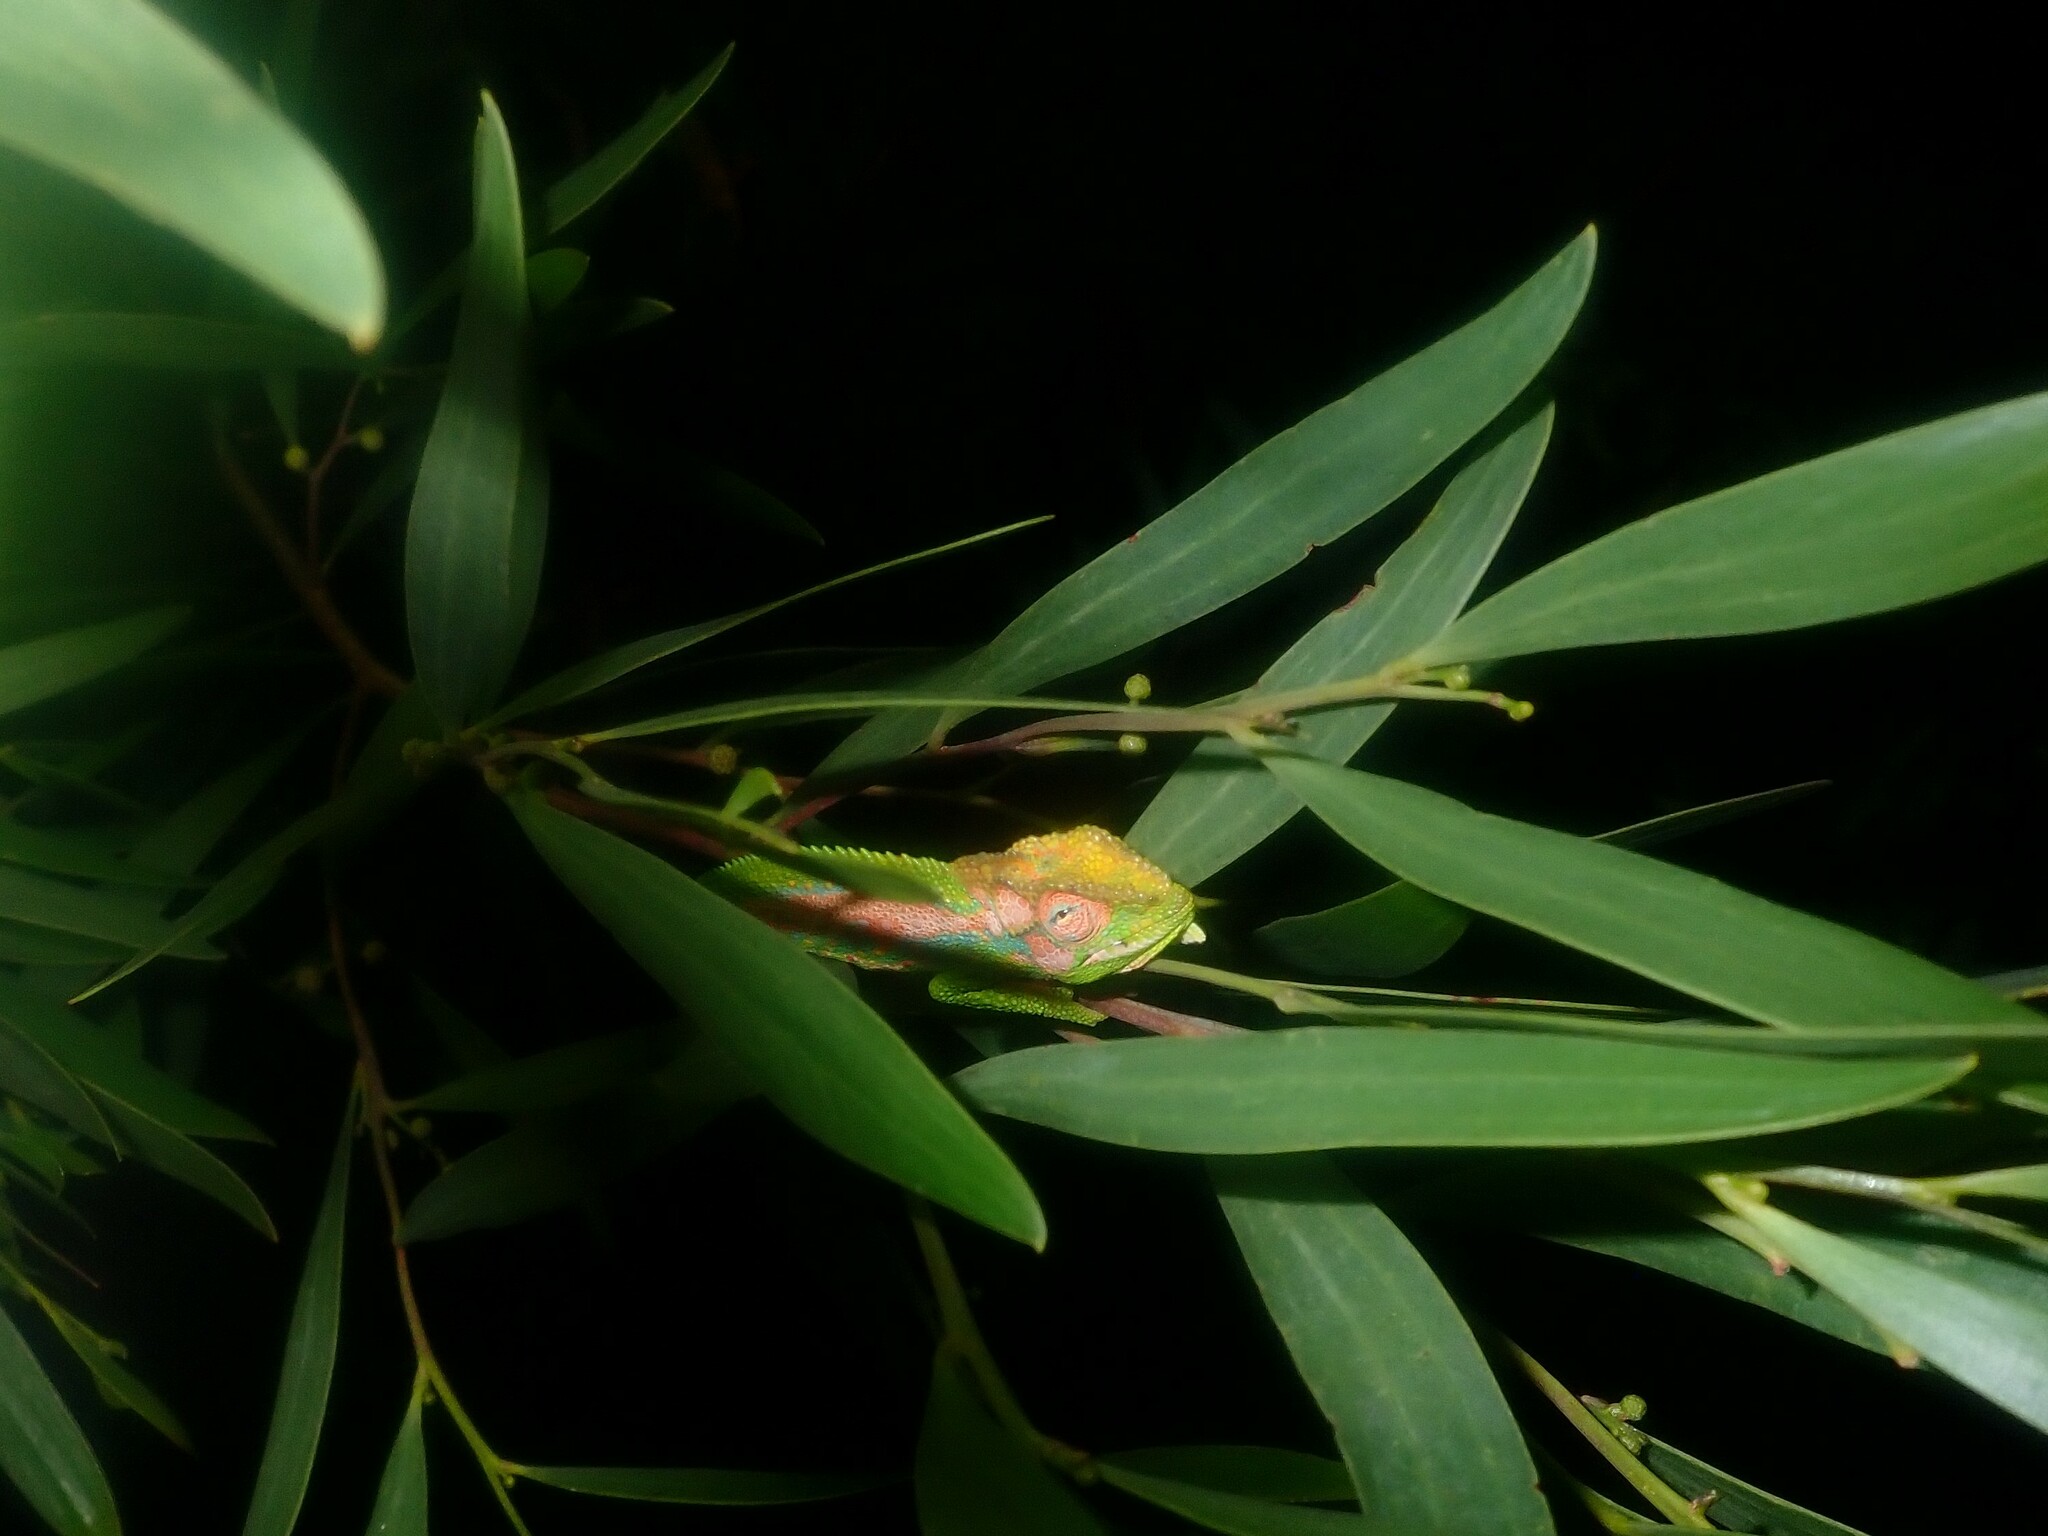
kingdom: Animalia
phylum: Chordata
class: Squamata
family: Chamaeleonidae
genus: Bradypodion
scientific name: Bradypodion pumilum
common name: Cape dwarf chameleon
